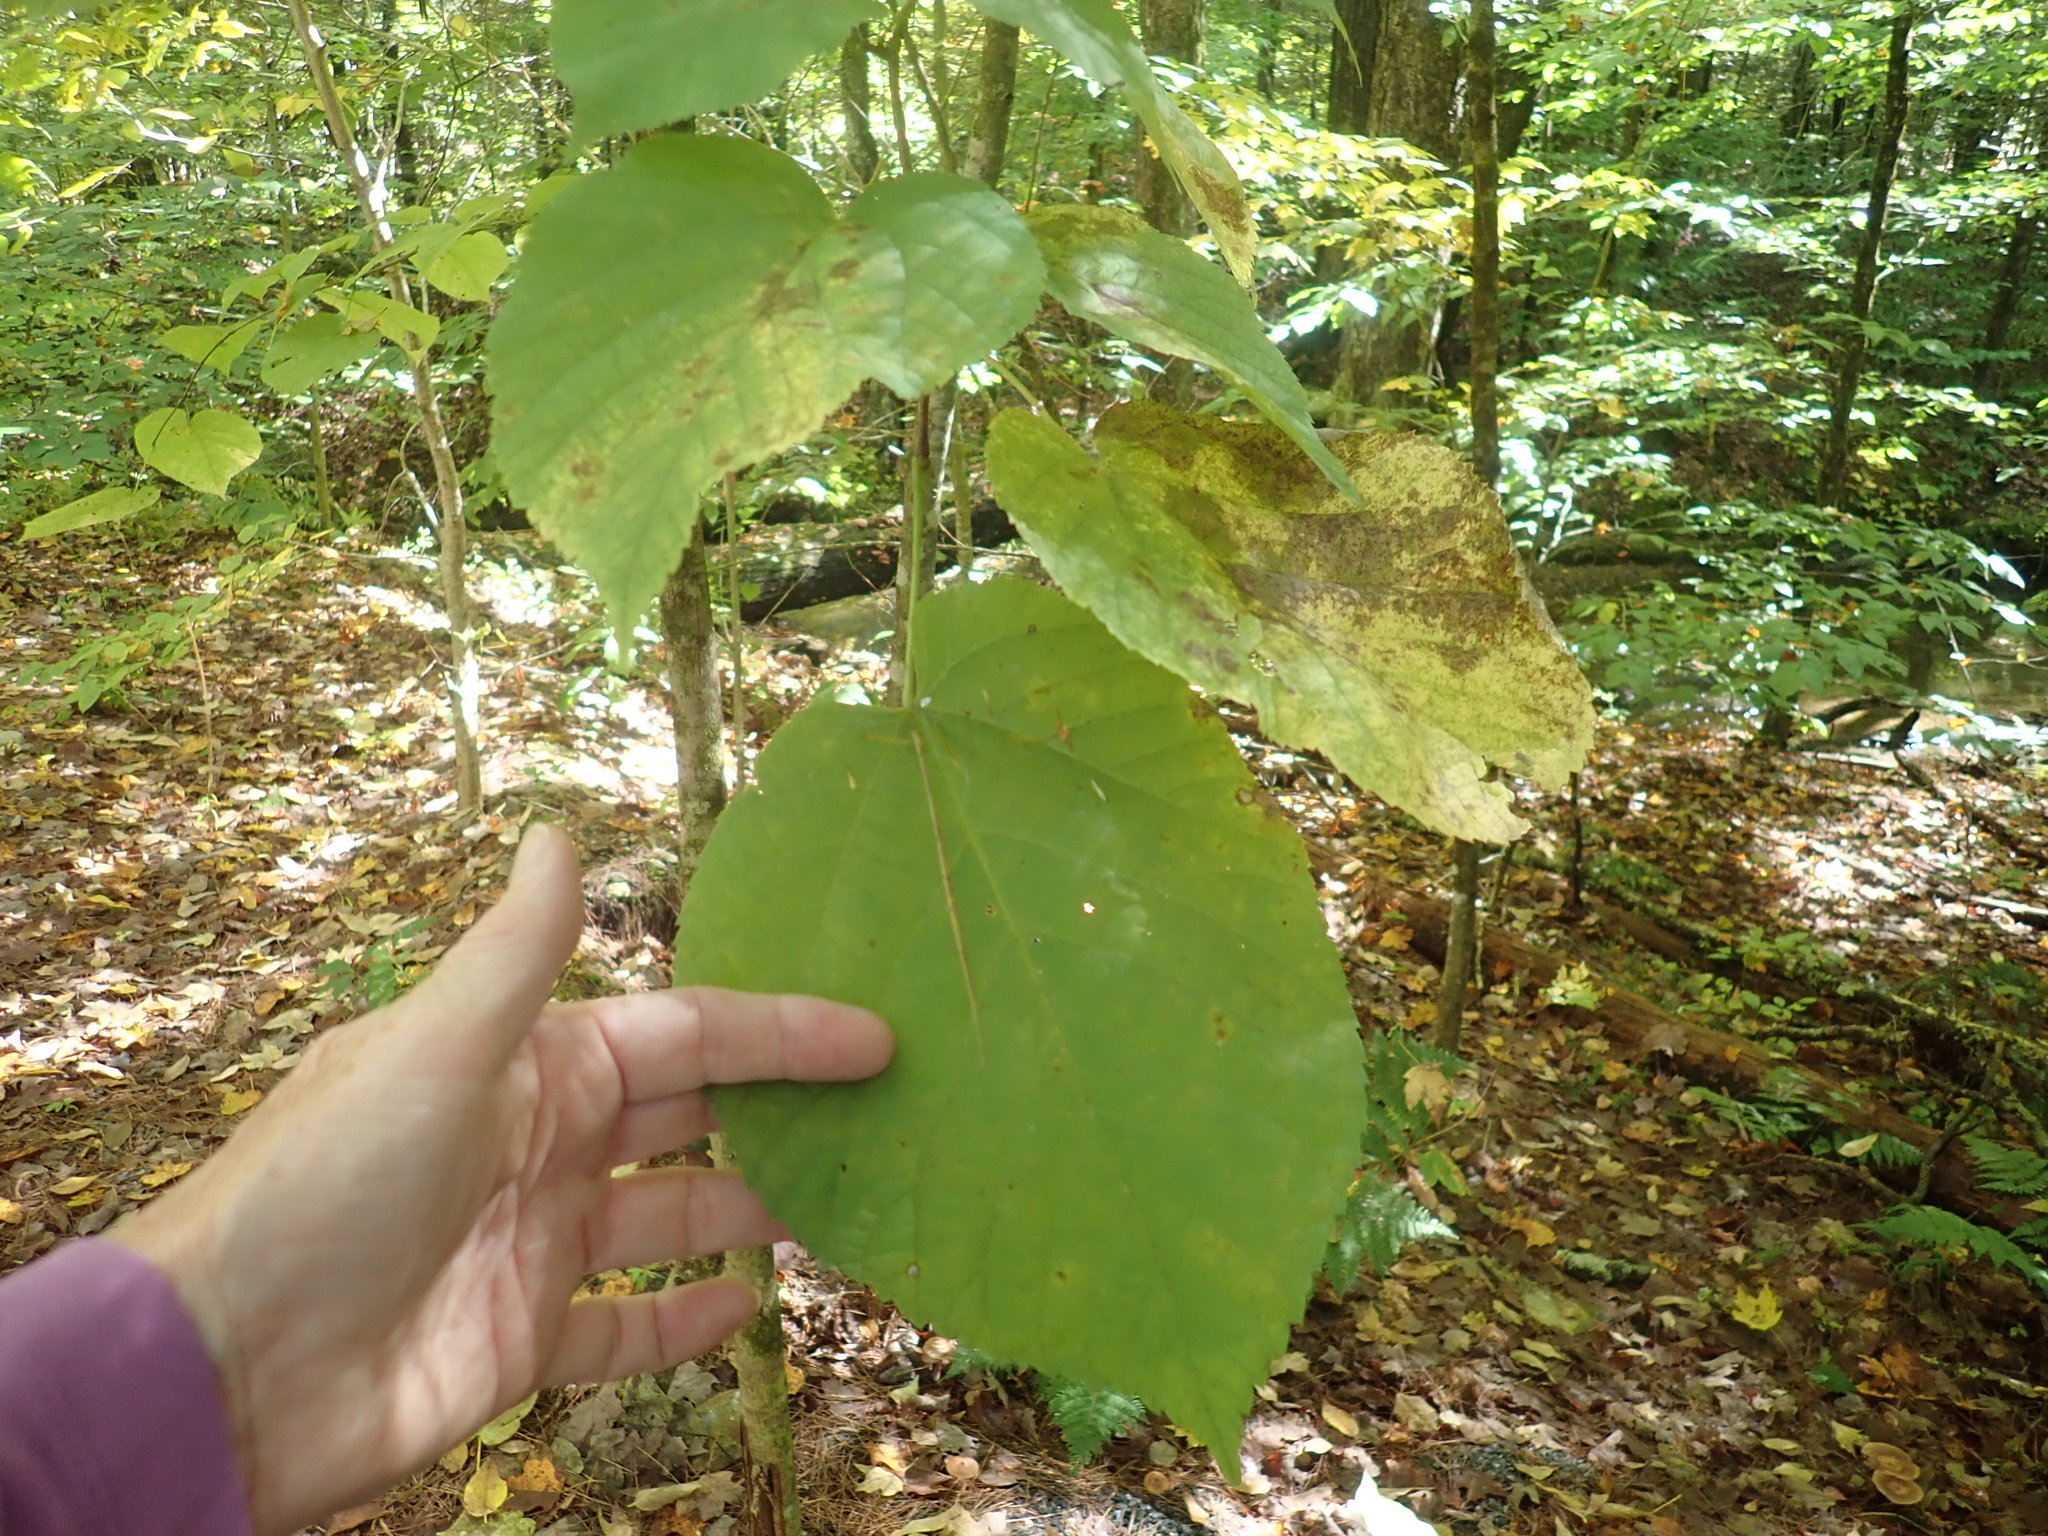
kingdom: Plantae
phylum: Tracheophyta
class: Magnoliopsida
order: Malvales
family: Malvaceae
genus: Tilia
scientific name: Tilia americana
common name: Basswood
